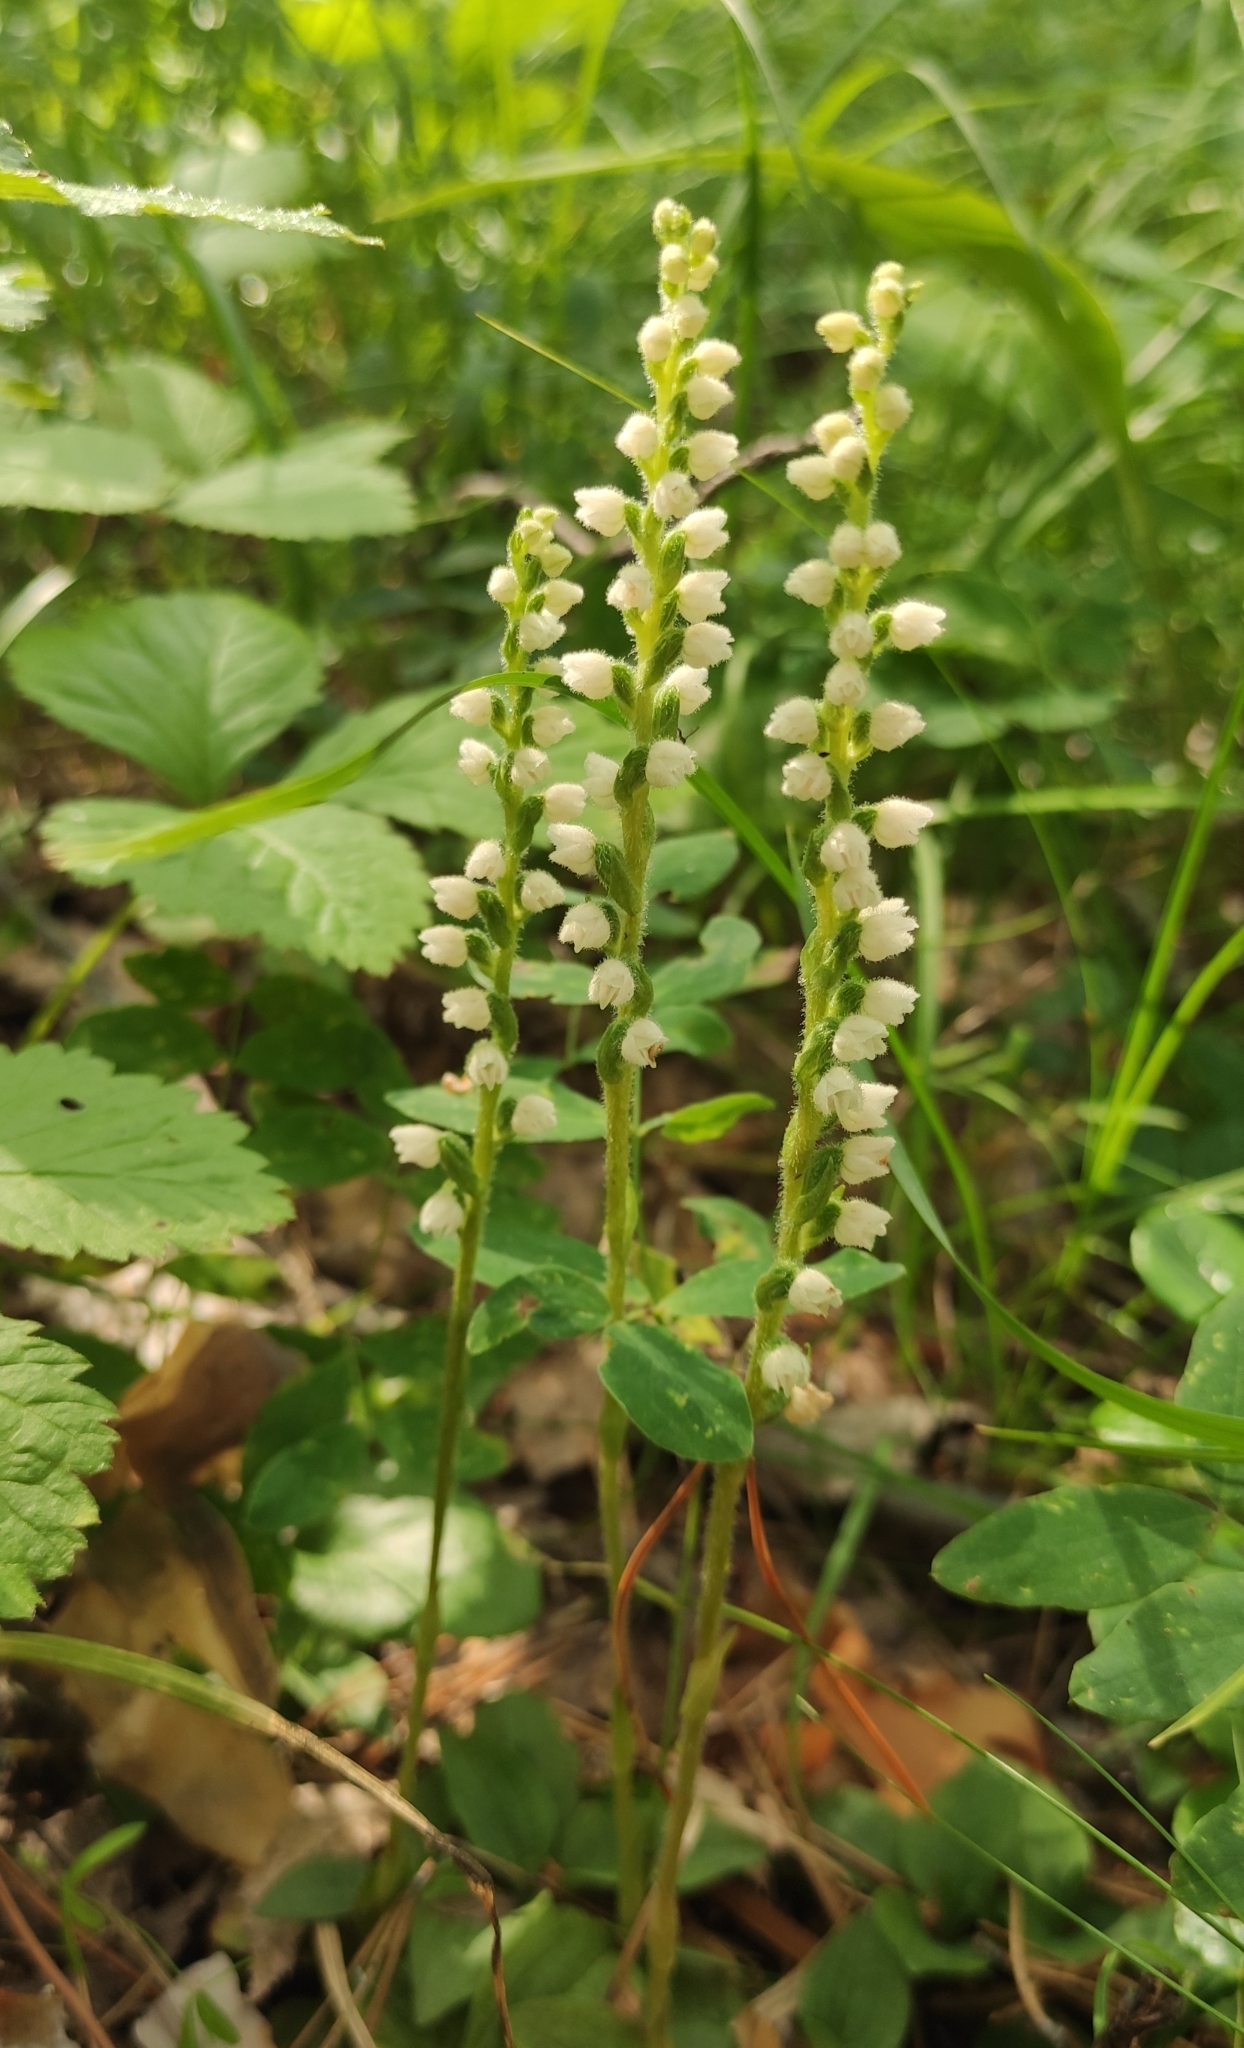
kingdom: Plantae
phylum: Tracheophyta
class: Liliopsida
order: Asparagales
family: Orchidaceae
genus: Goodyera
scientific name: Goodyera repens
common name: Creeping lady's-tresses
